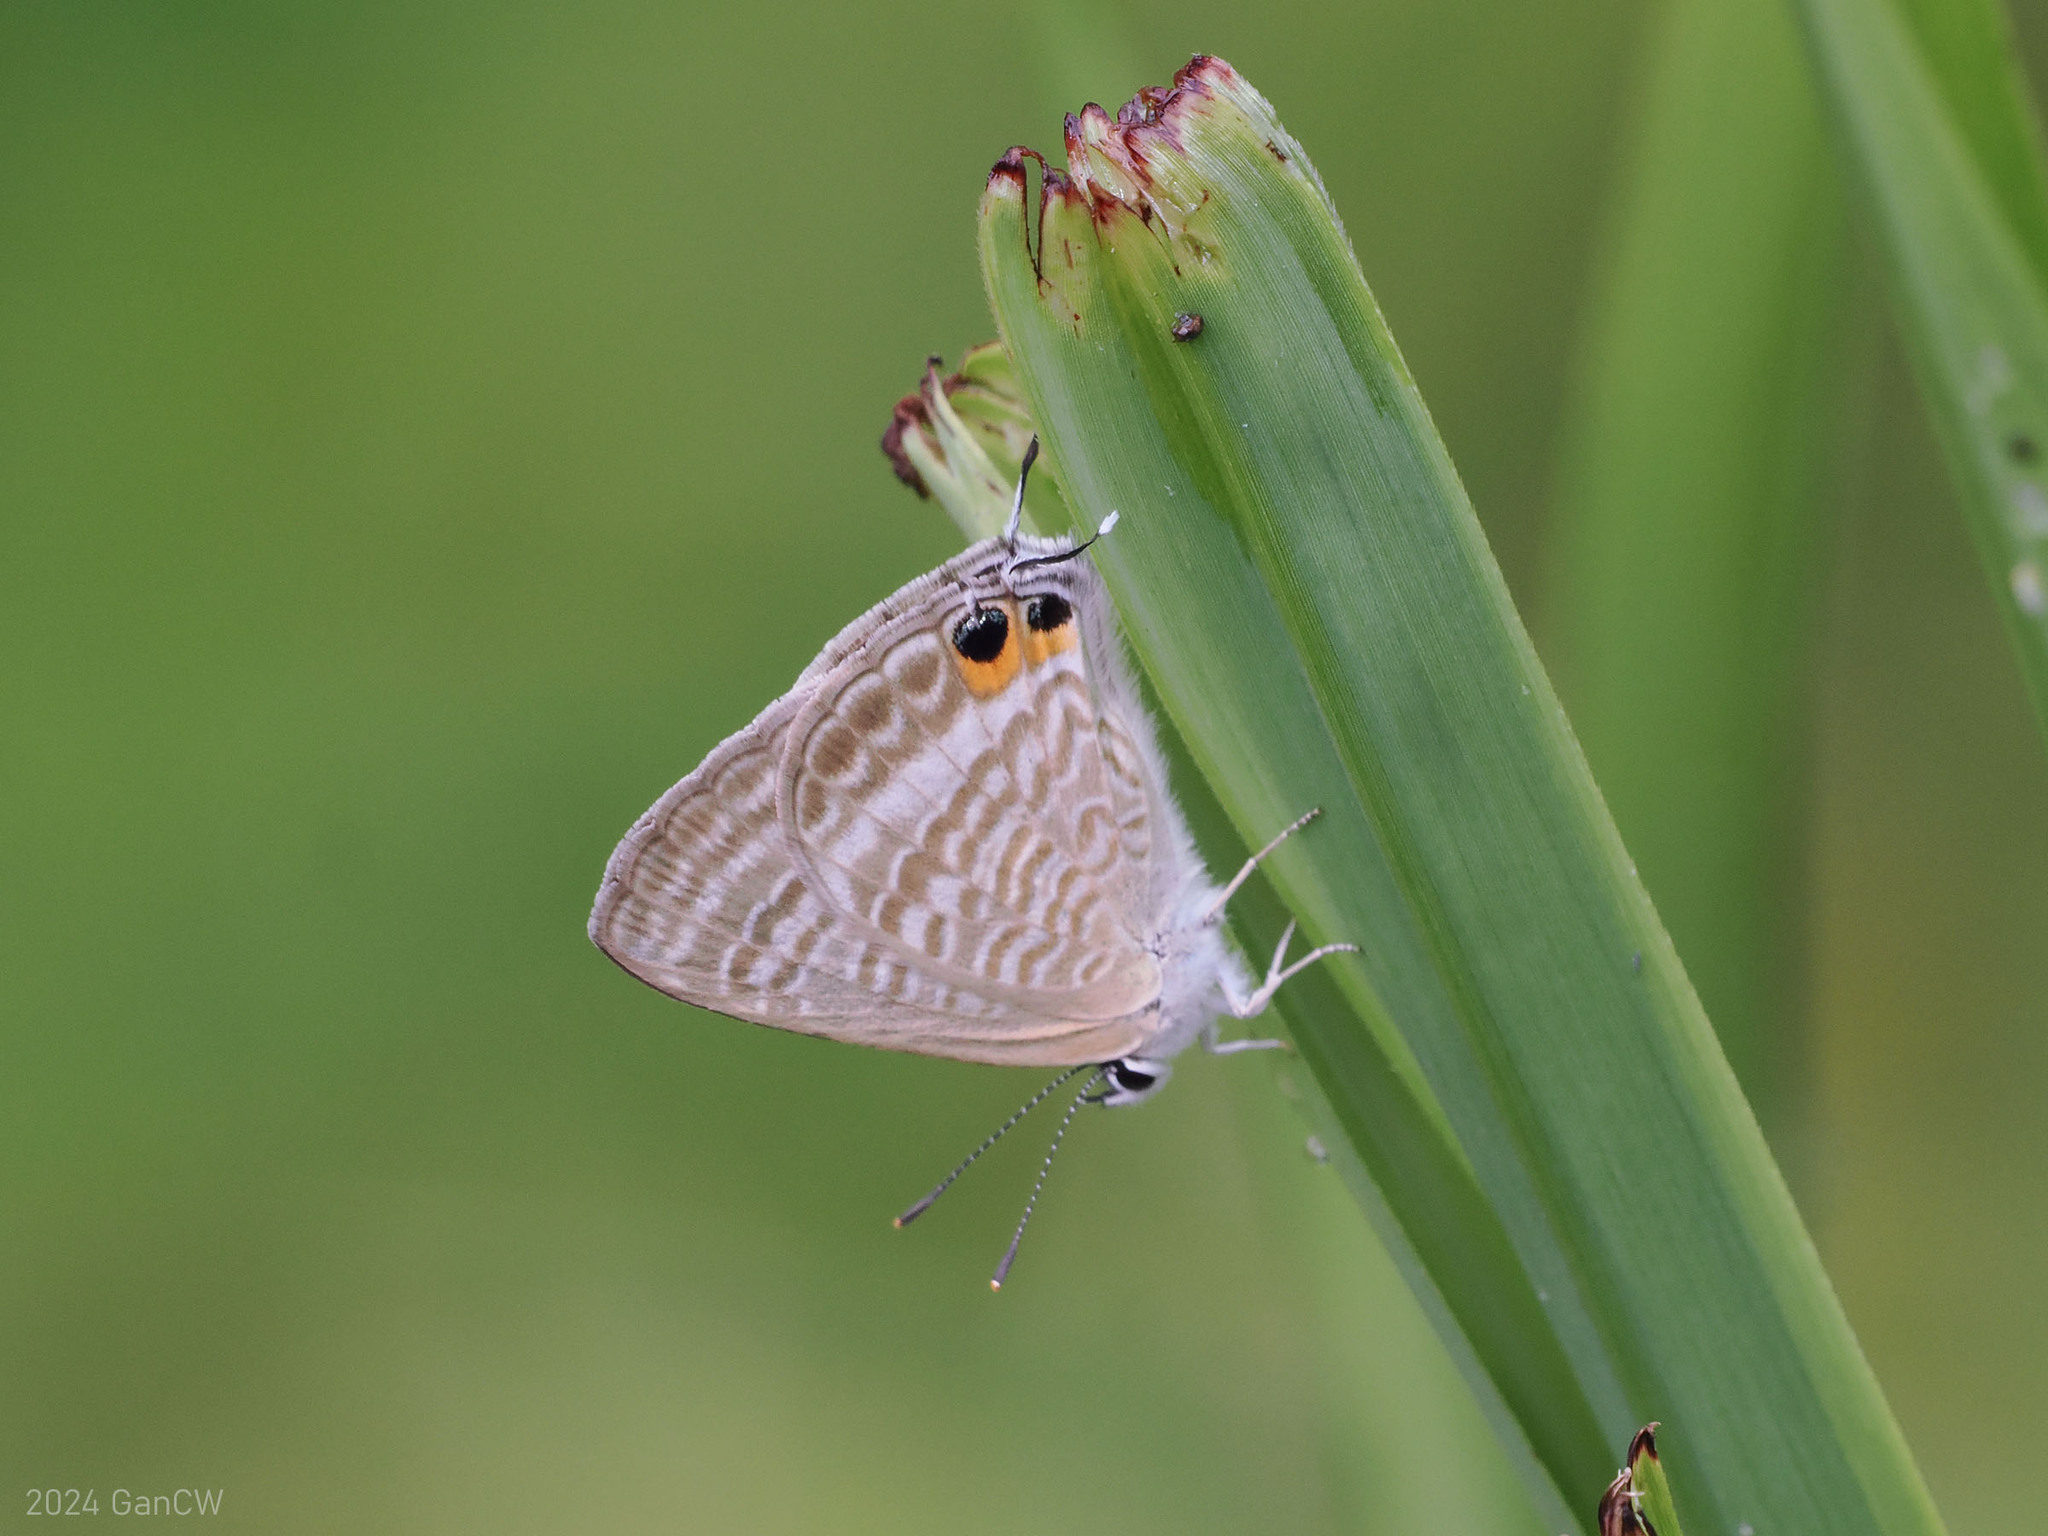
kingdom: Animalia
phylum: Arthropoda
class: Insecta
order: Lepidoptera
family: Lycaenidae
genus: Lampides
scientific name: Lampides boeticus
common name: Long-tailed blue
